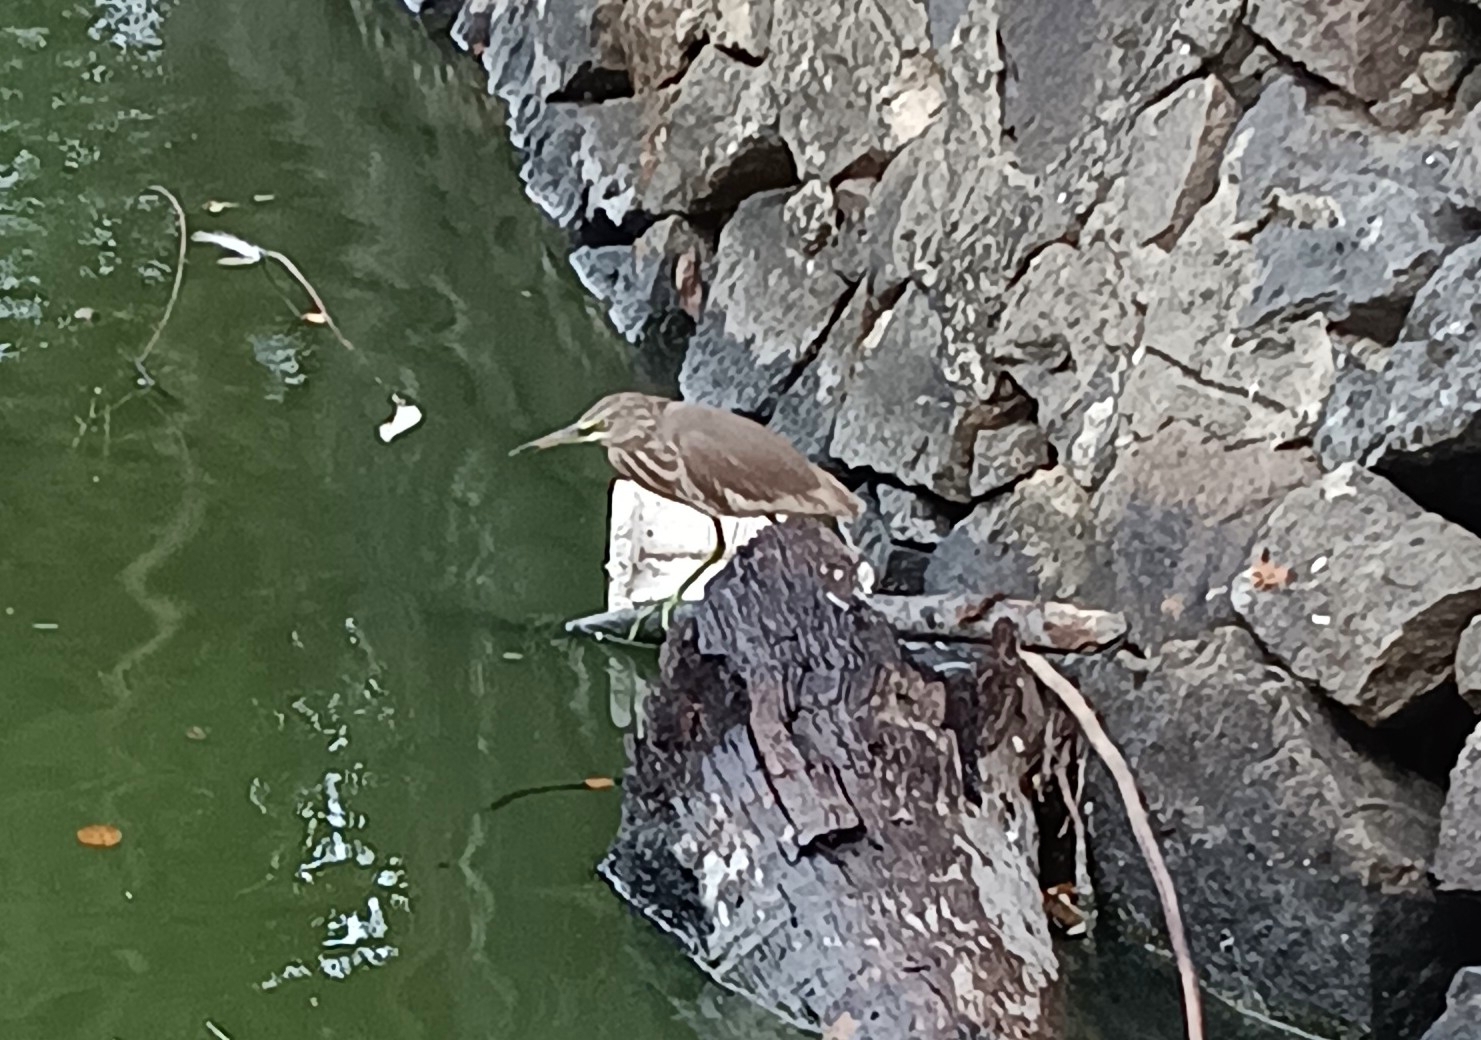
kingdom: Animalia
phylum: Chordata
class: Aves
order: Pelecaniformes
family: Ardeidae
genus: Ardeola
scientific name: Ardeola grayii
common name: Indian pond heron
